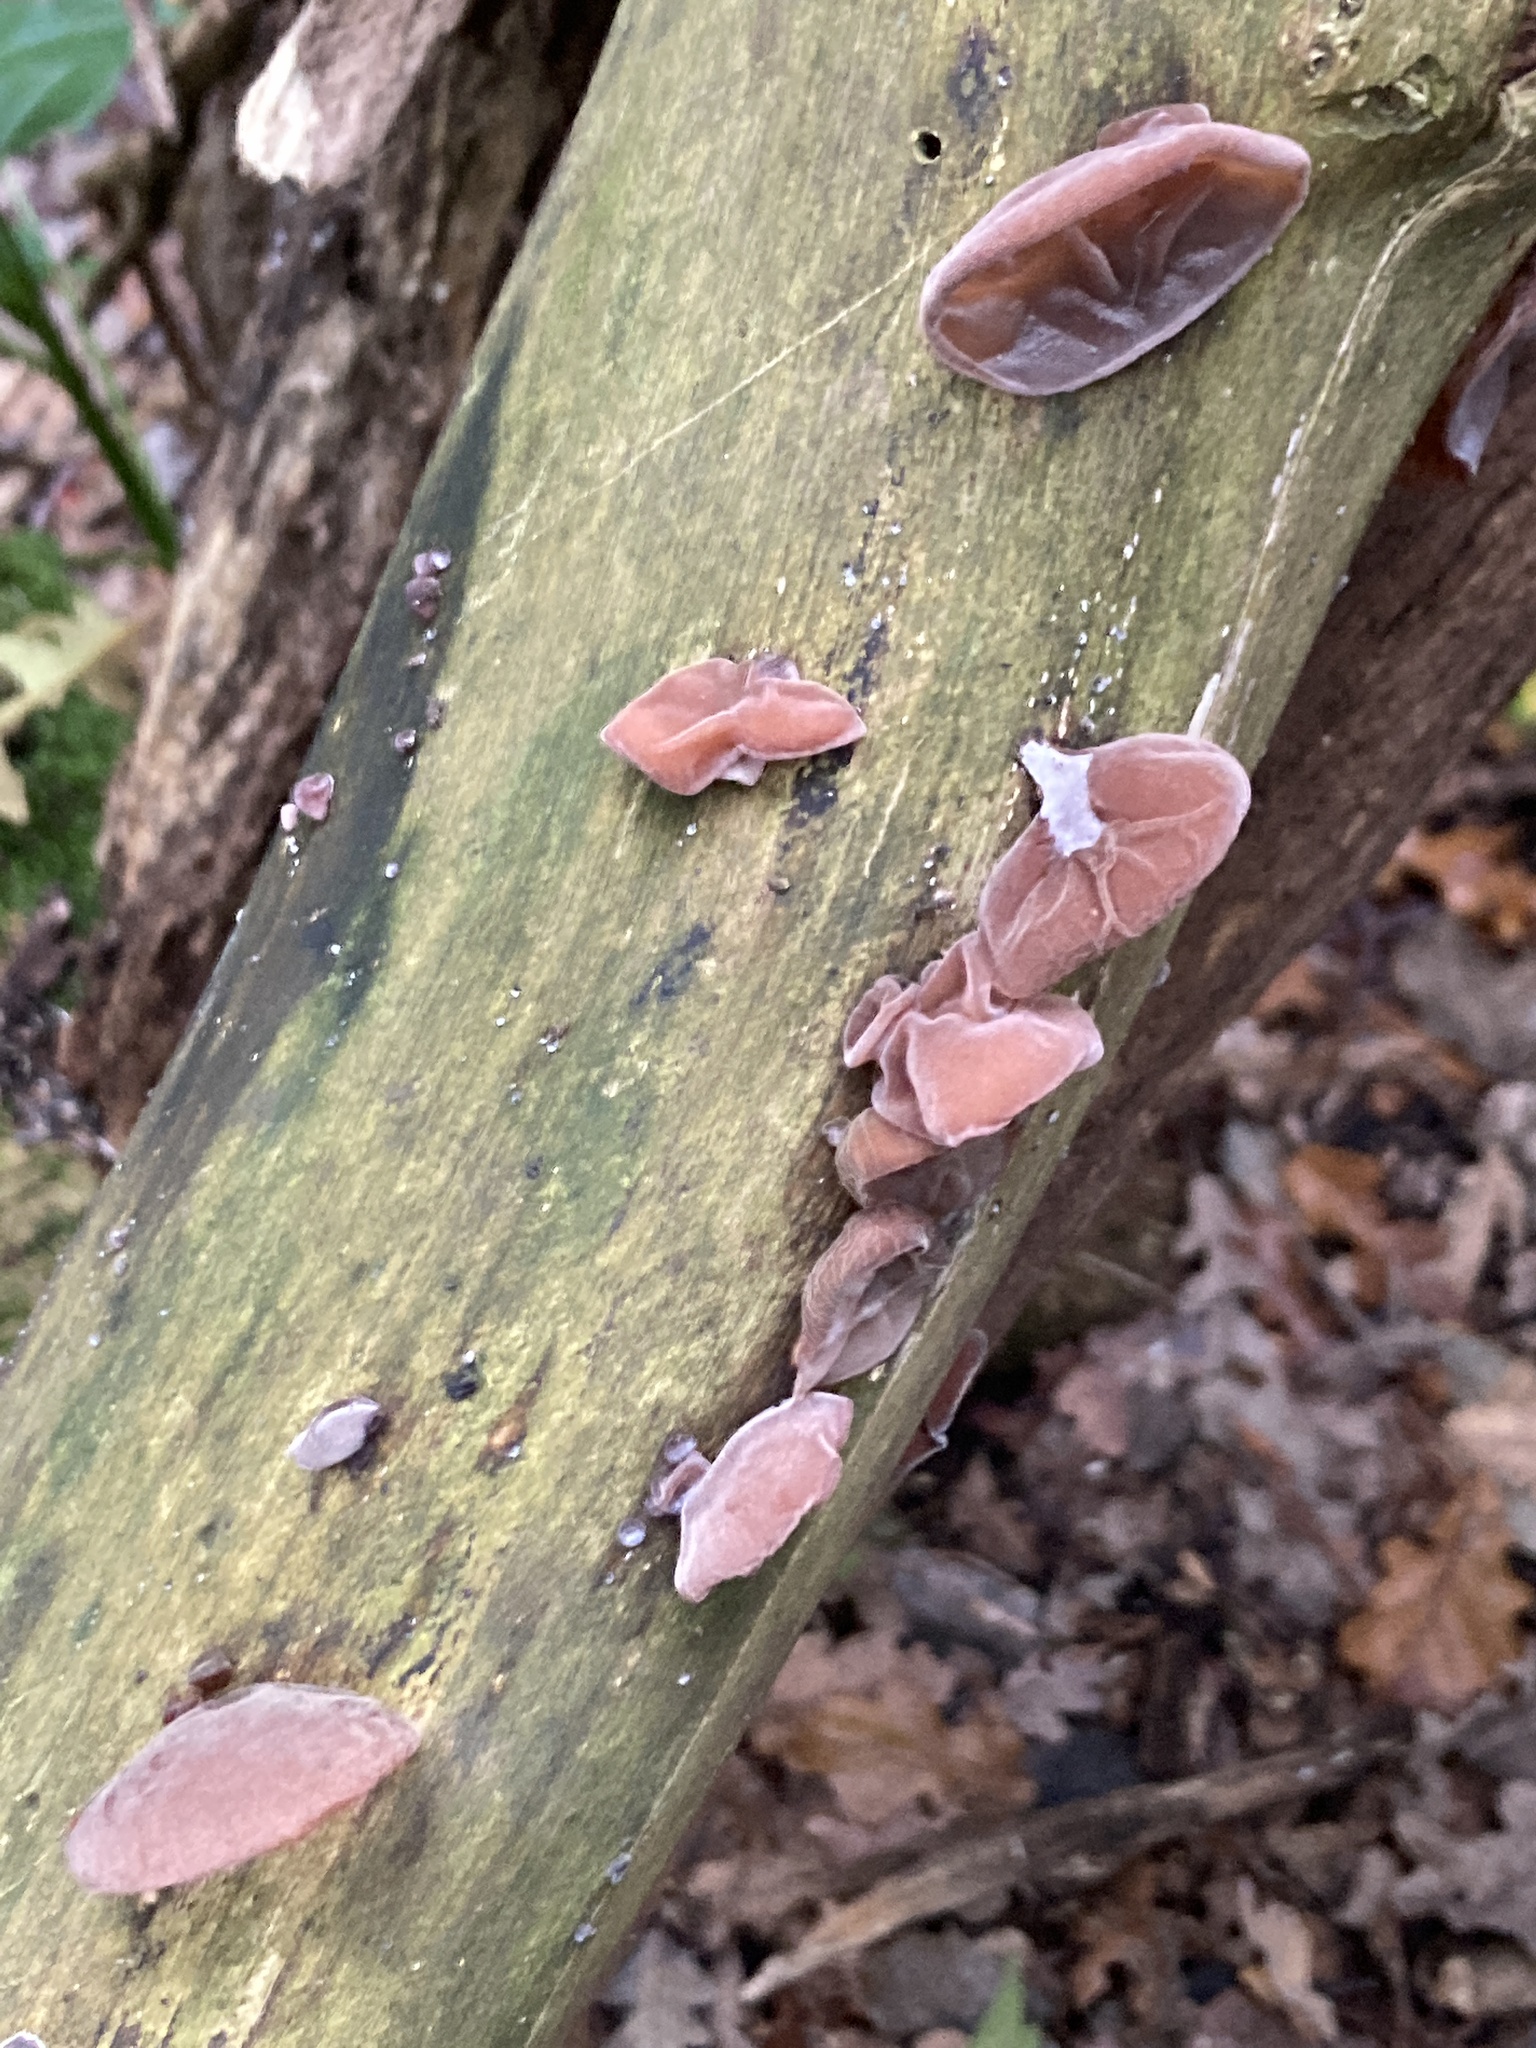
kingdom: Fungi
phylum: Basidiomycota
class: Agaricomycetes
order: Auriculariales
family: Auriculariaceae
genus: Auricularia
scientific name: Auricularia auricula-judae
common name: Jelly ear
